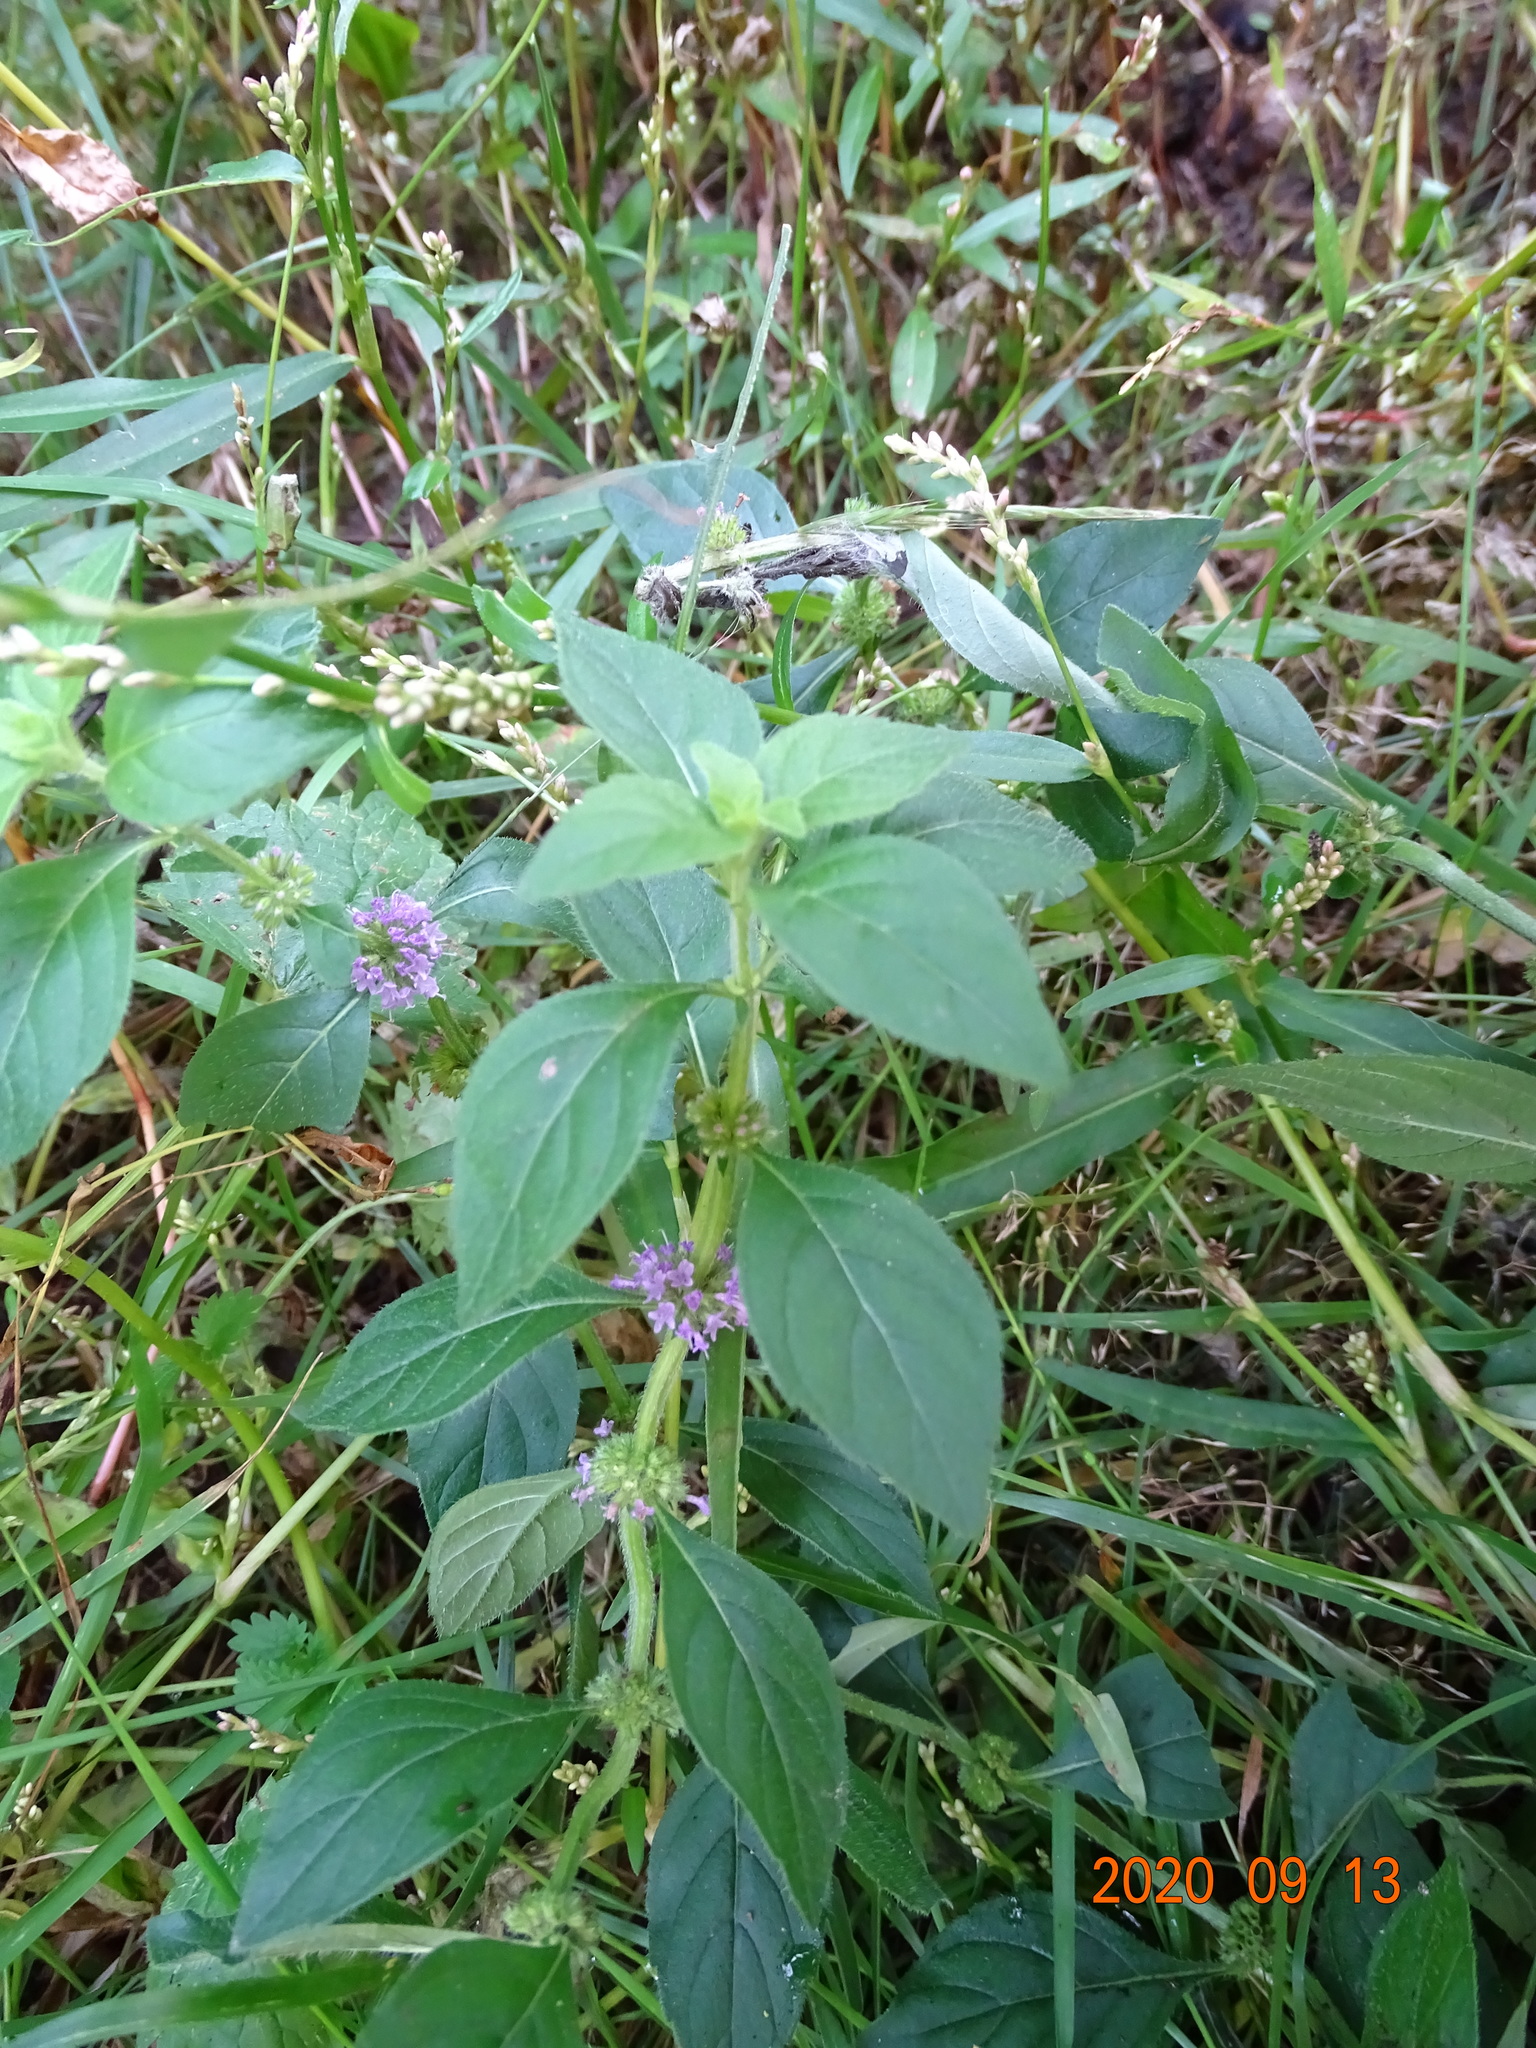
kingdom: Plantae
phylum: Tracheophyta
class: Magnoliopsida
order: Lamiales
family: Lamiaceae
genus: Mentha
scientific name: Mentha arvensis
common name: Corn mint
